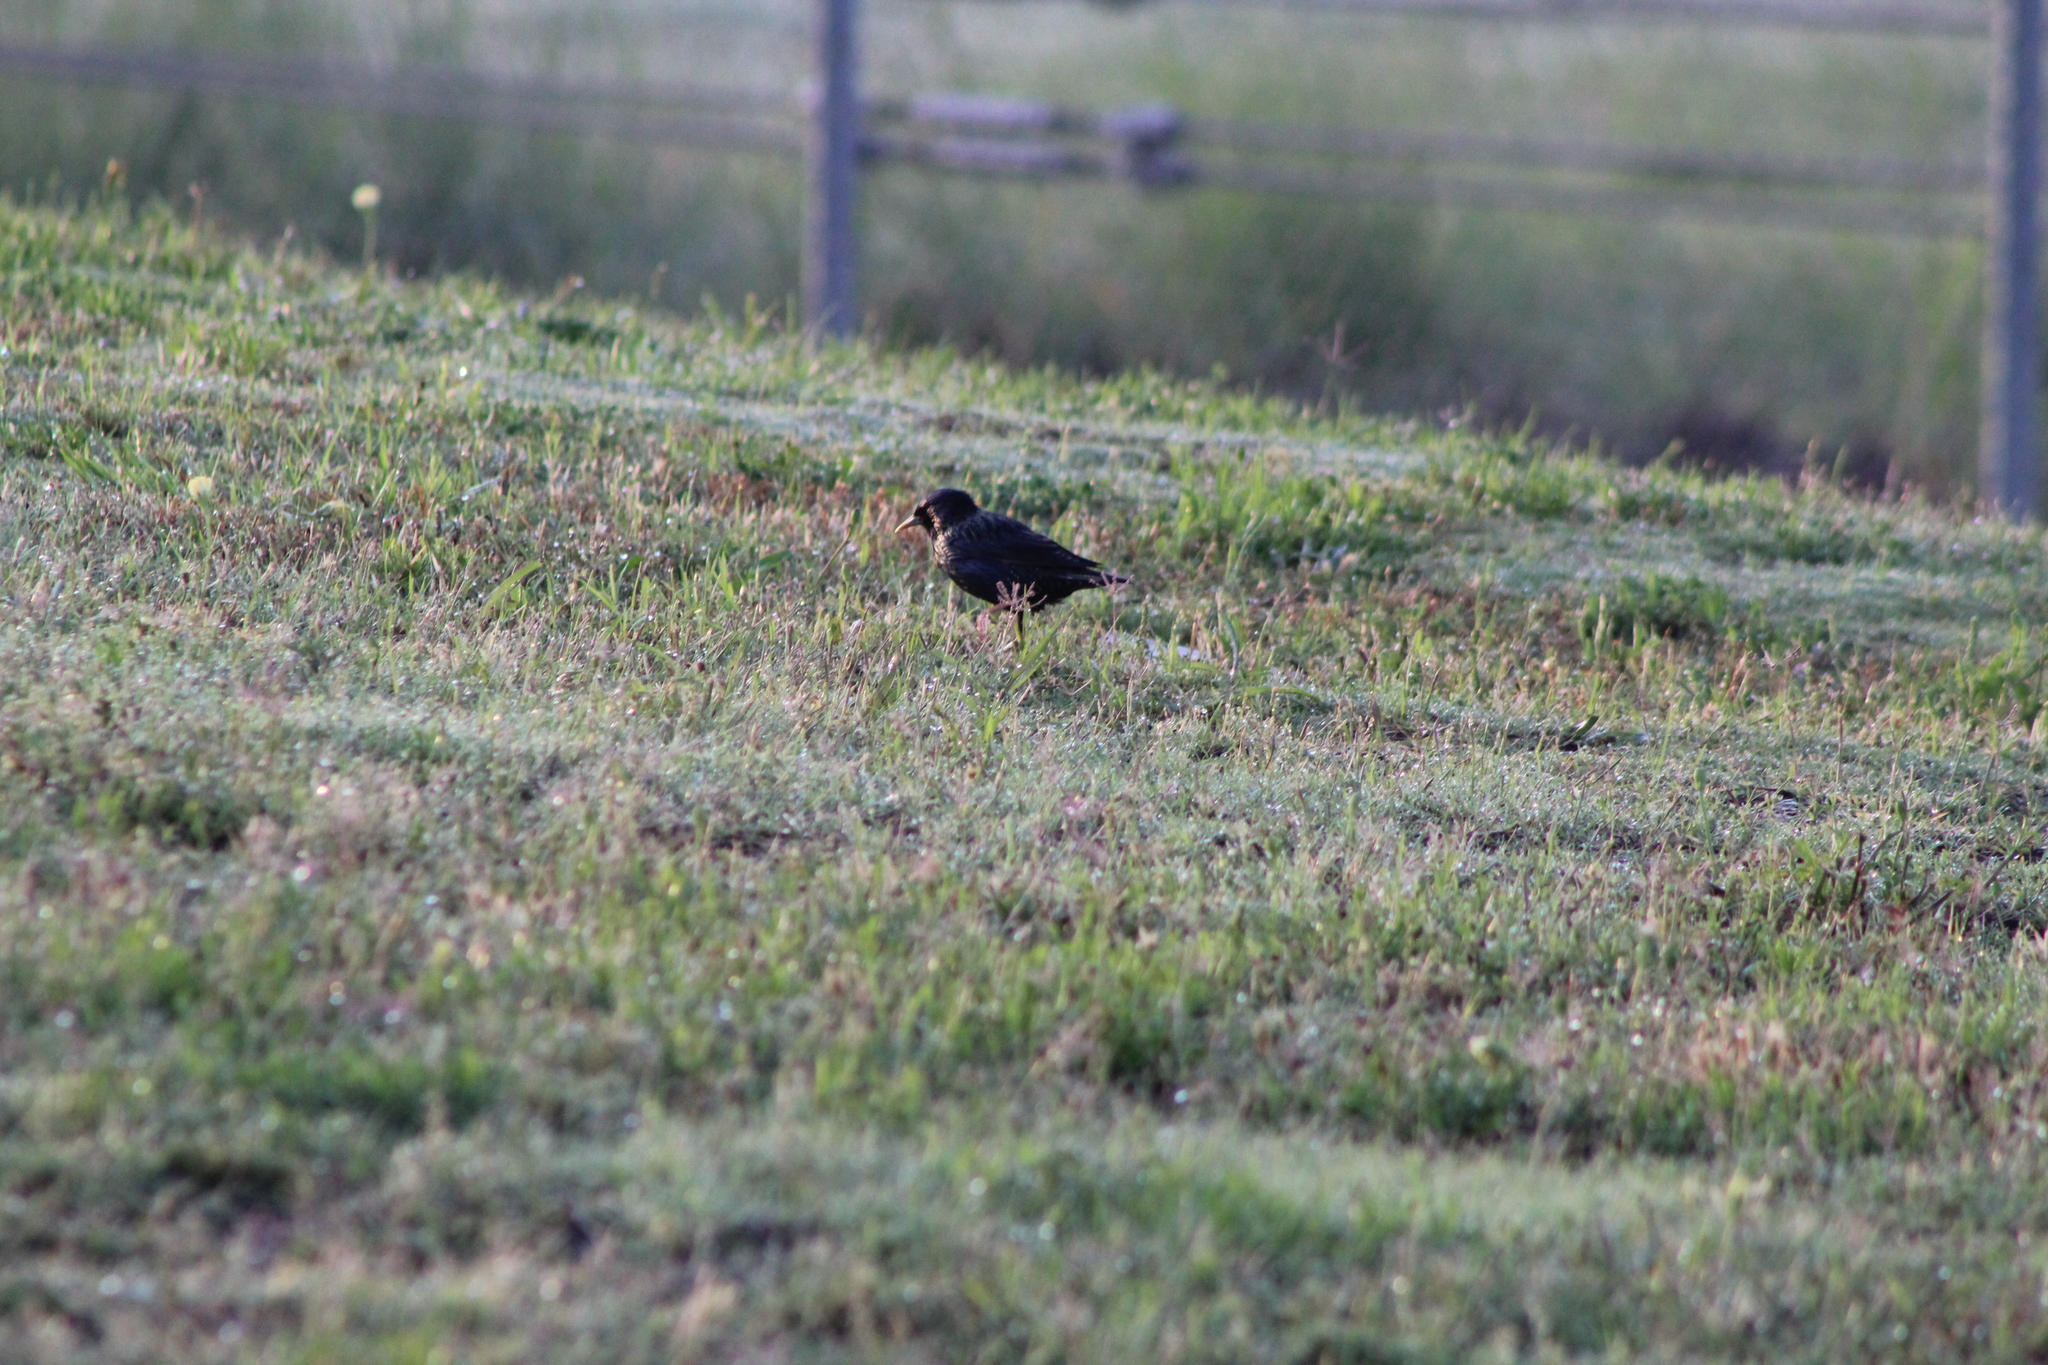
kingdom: Animalia
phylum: Chordata
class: Aves
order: Passeriformes
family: Sturnidae
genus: Sturnus
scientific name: Sturnus vulgaris
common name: Common starling
